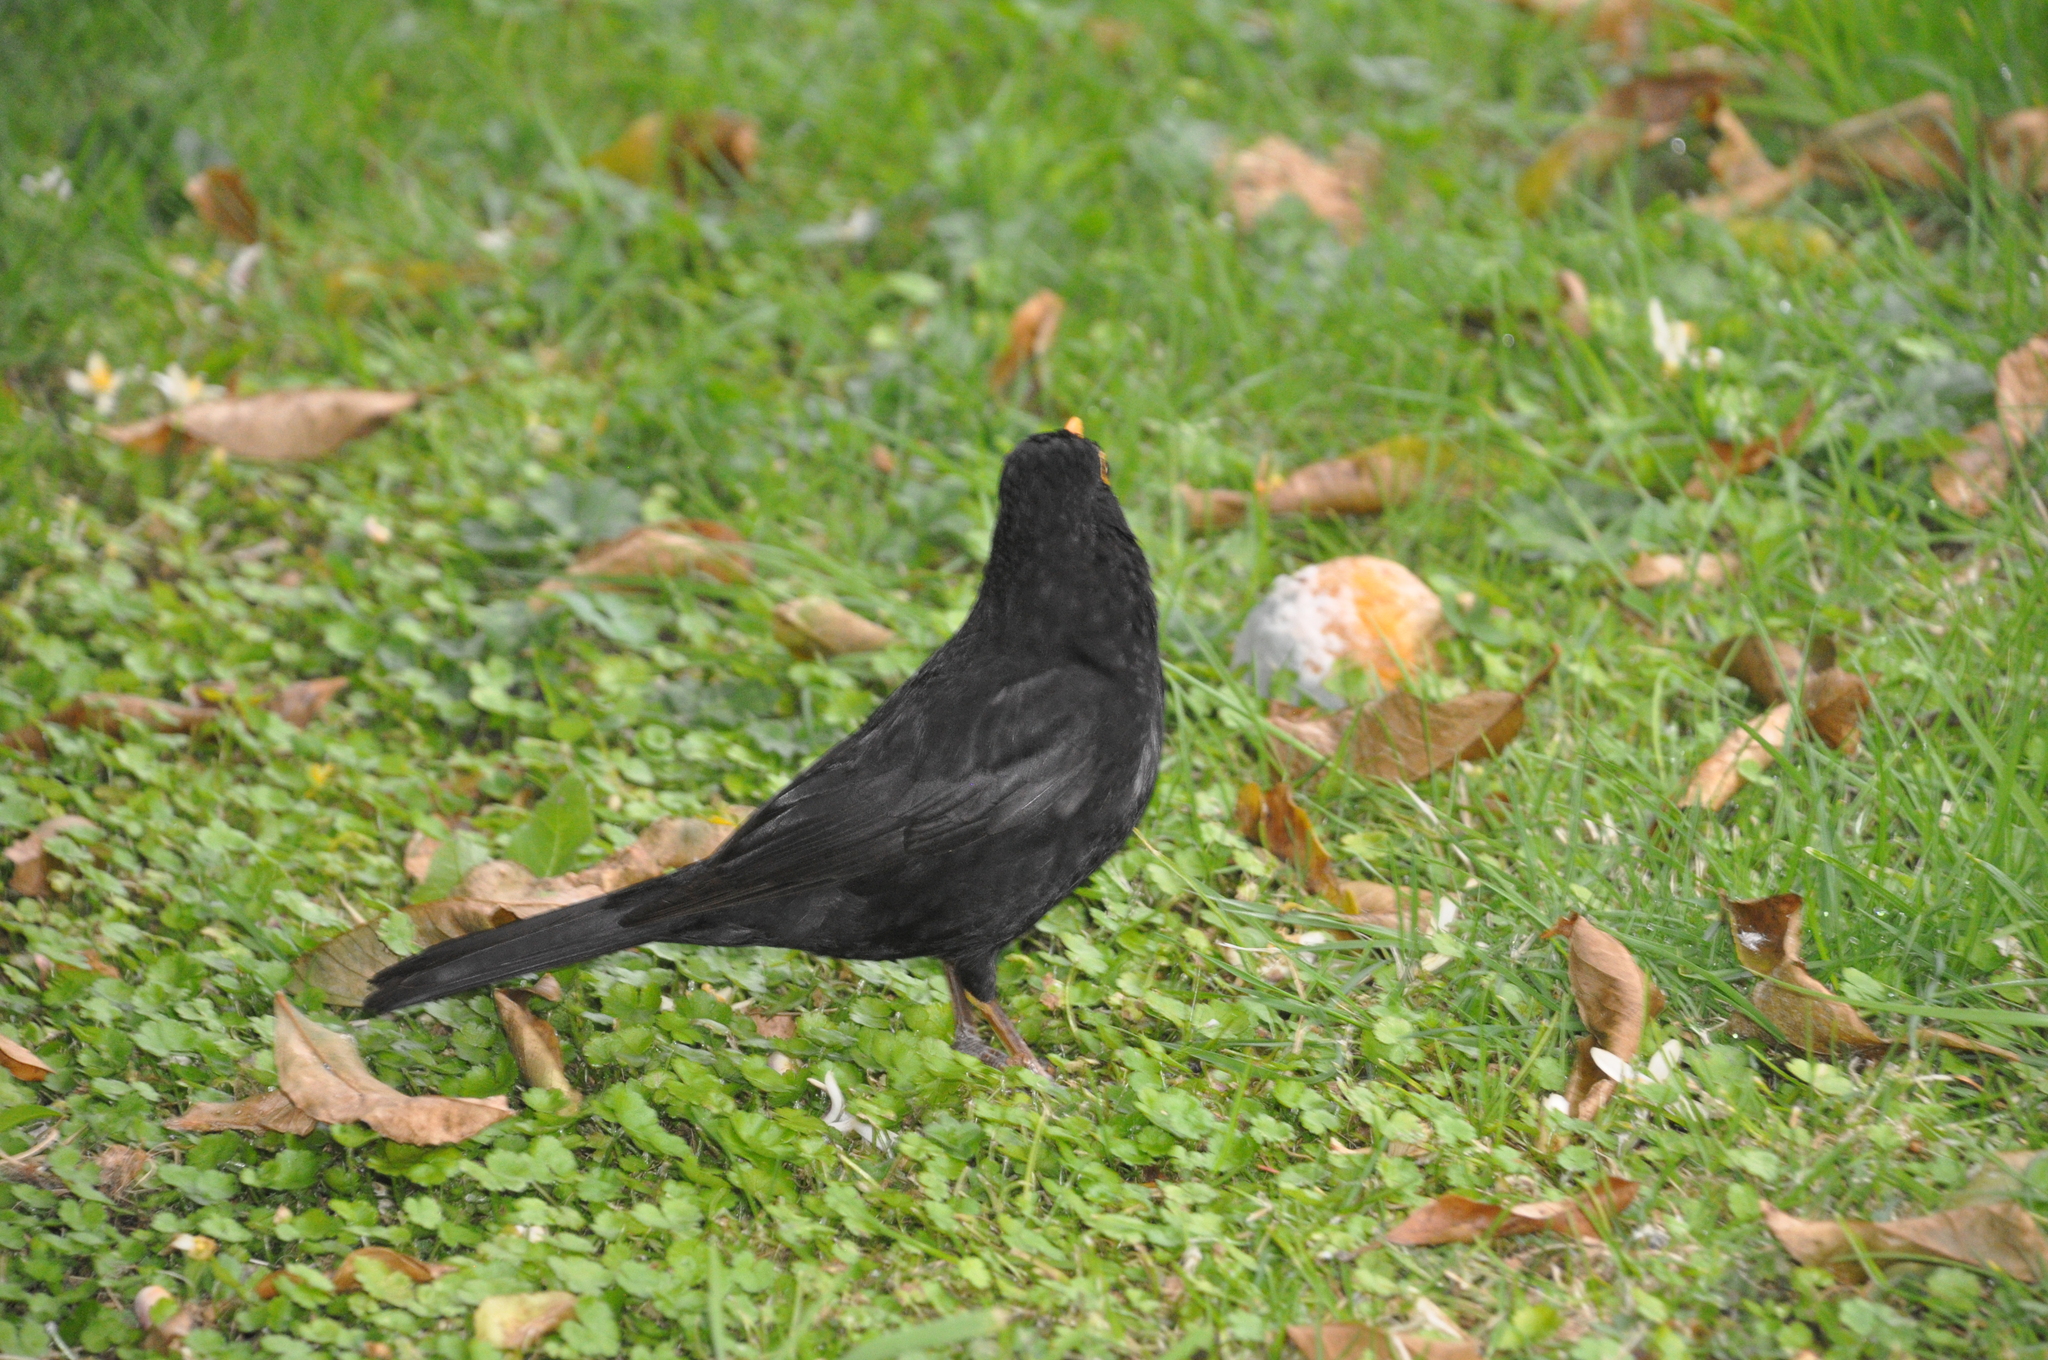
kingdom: Animalia
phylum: Chordata
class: Aves
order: Passeriformes
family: Turdidae
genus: Turdus
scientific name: Turdus merula
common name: Common blackbird
